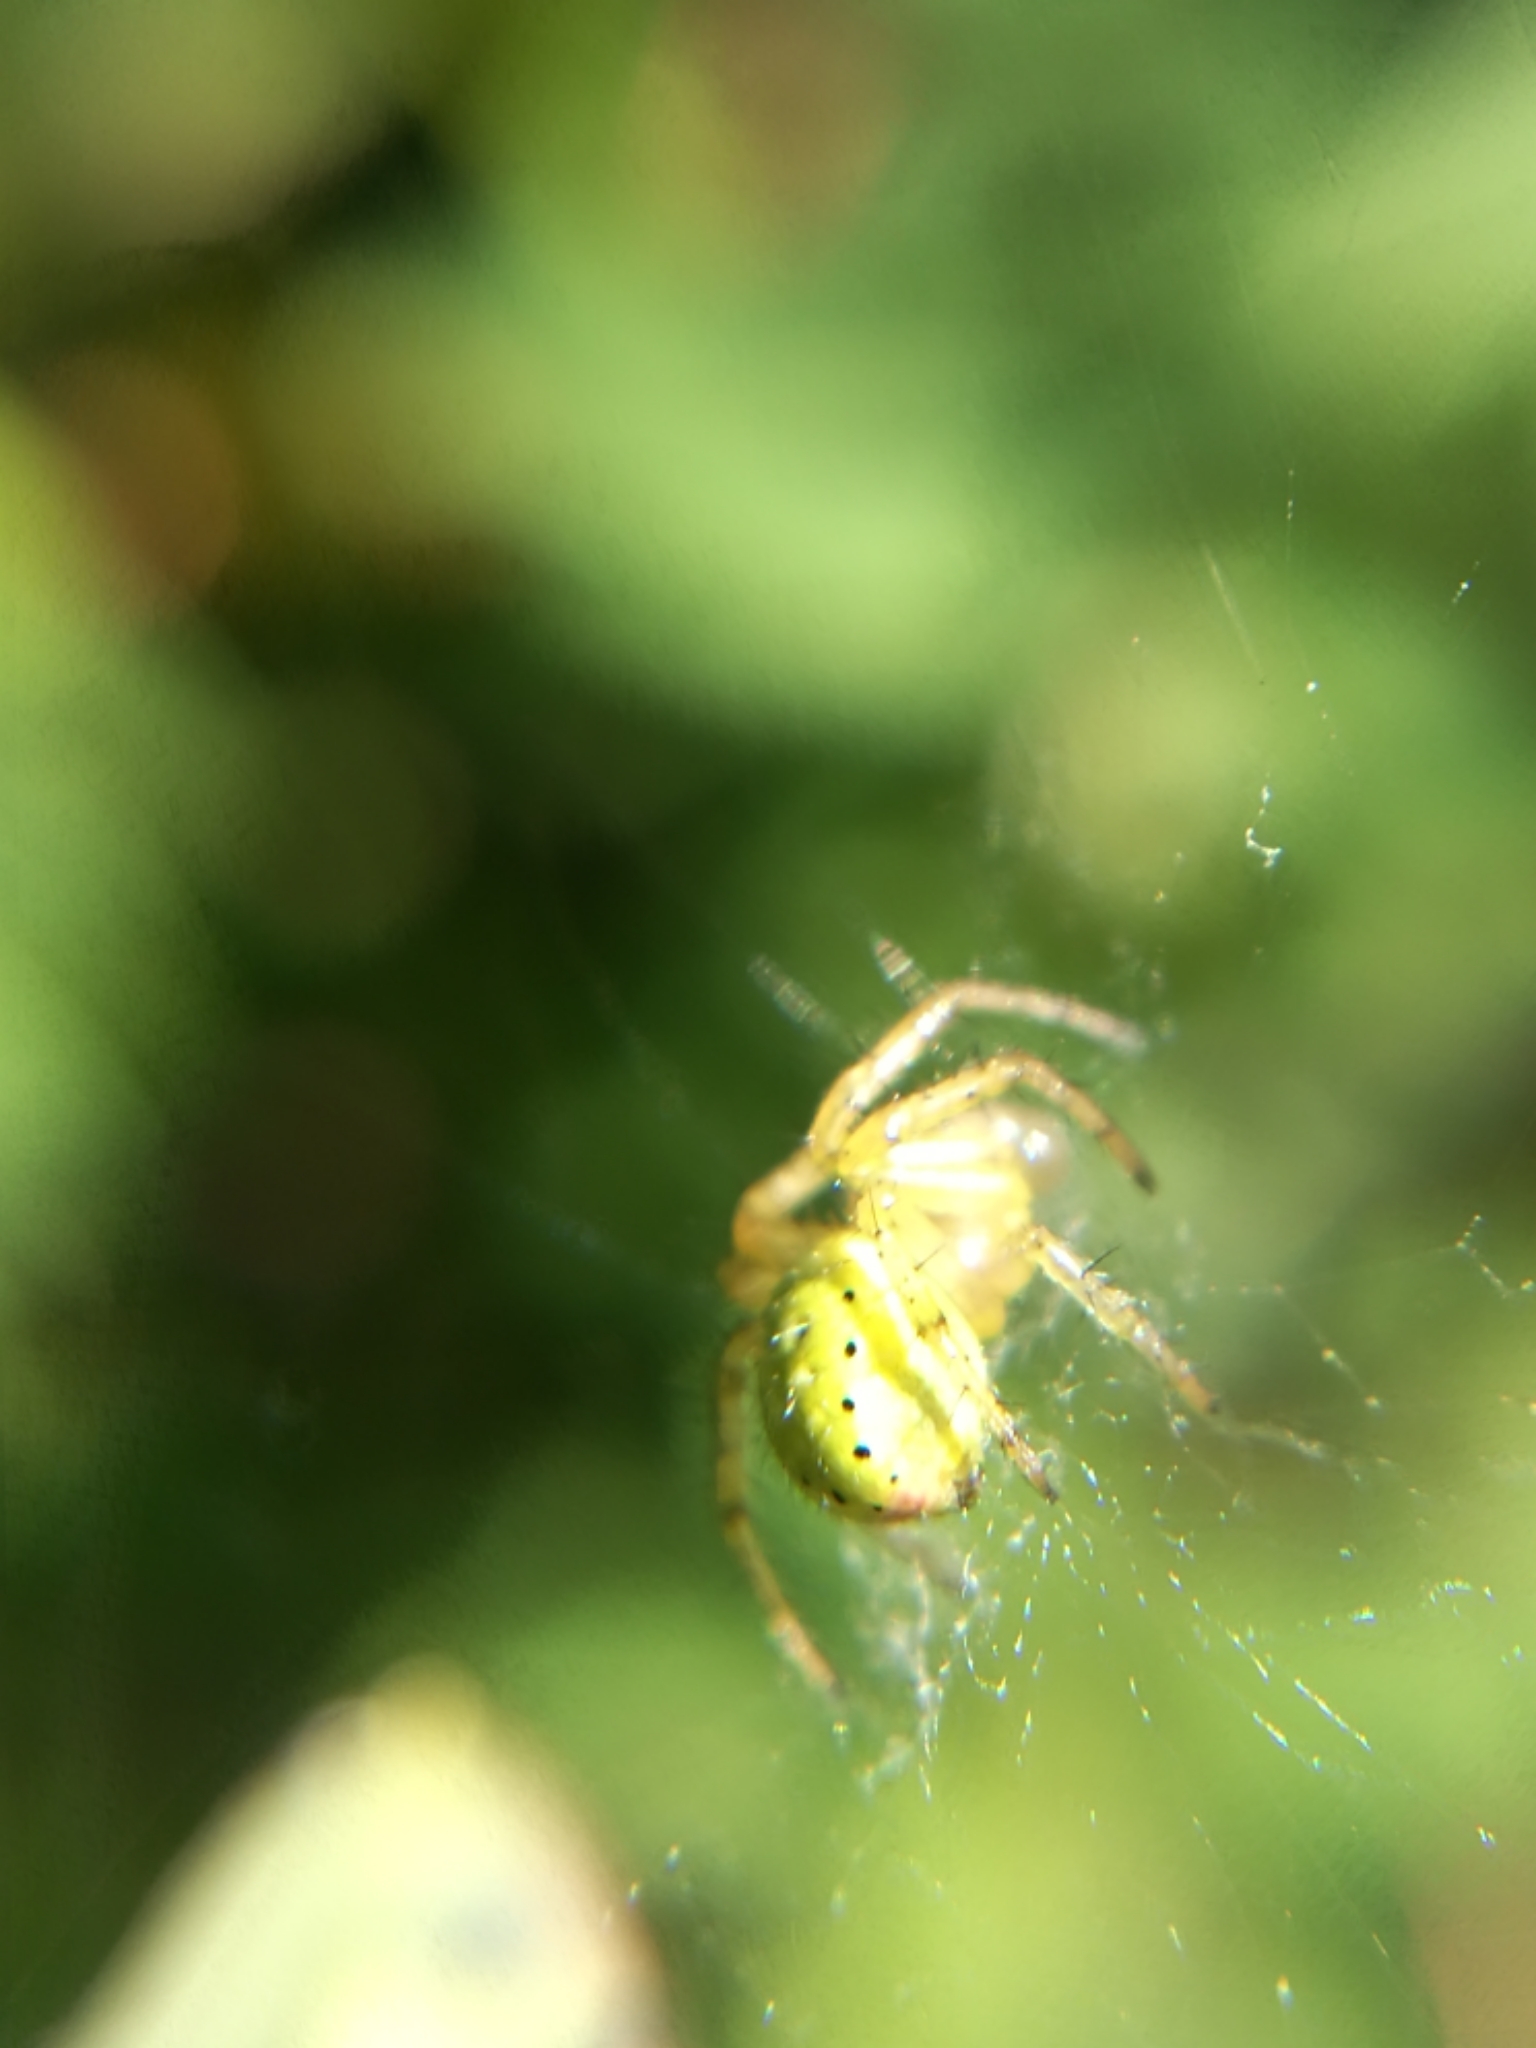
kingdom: Animalia
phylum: Arthropoda
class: Arachnida
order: Araneae
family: Araneidae
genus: Araniella
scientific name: Araniella opisthographa
